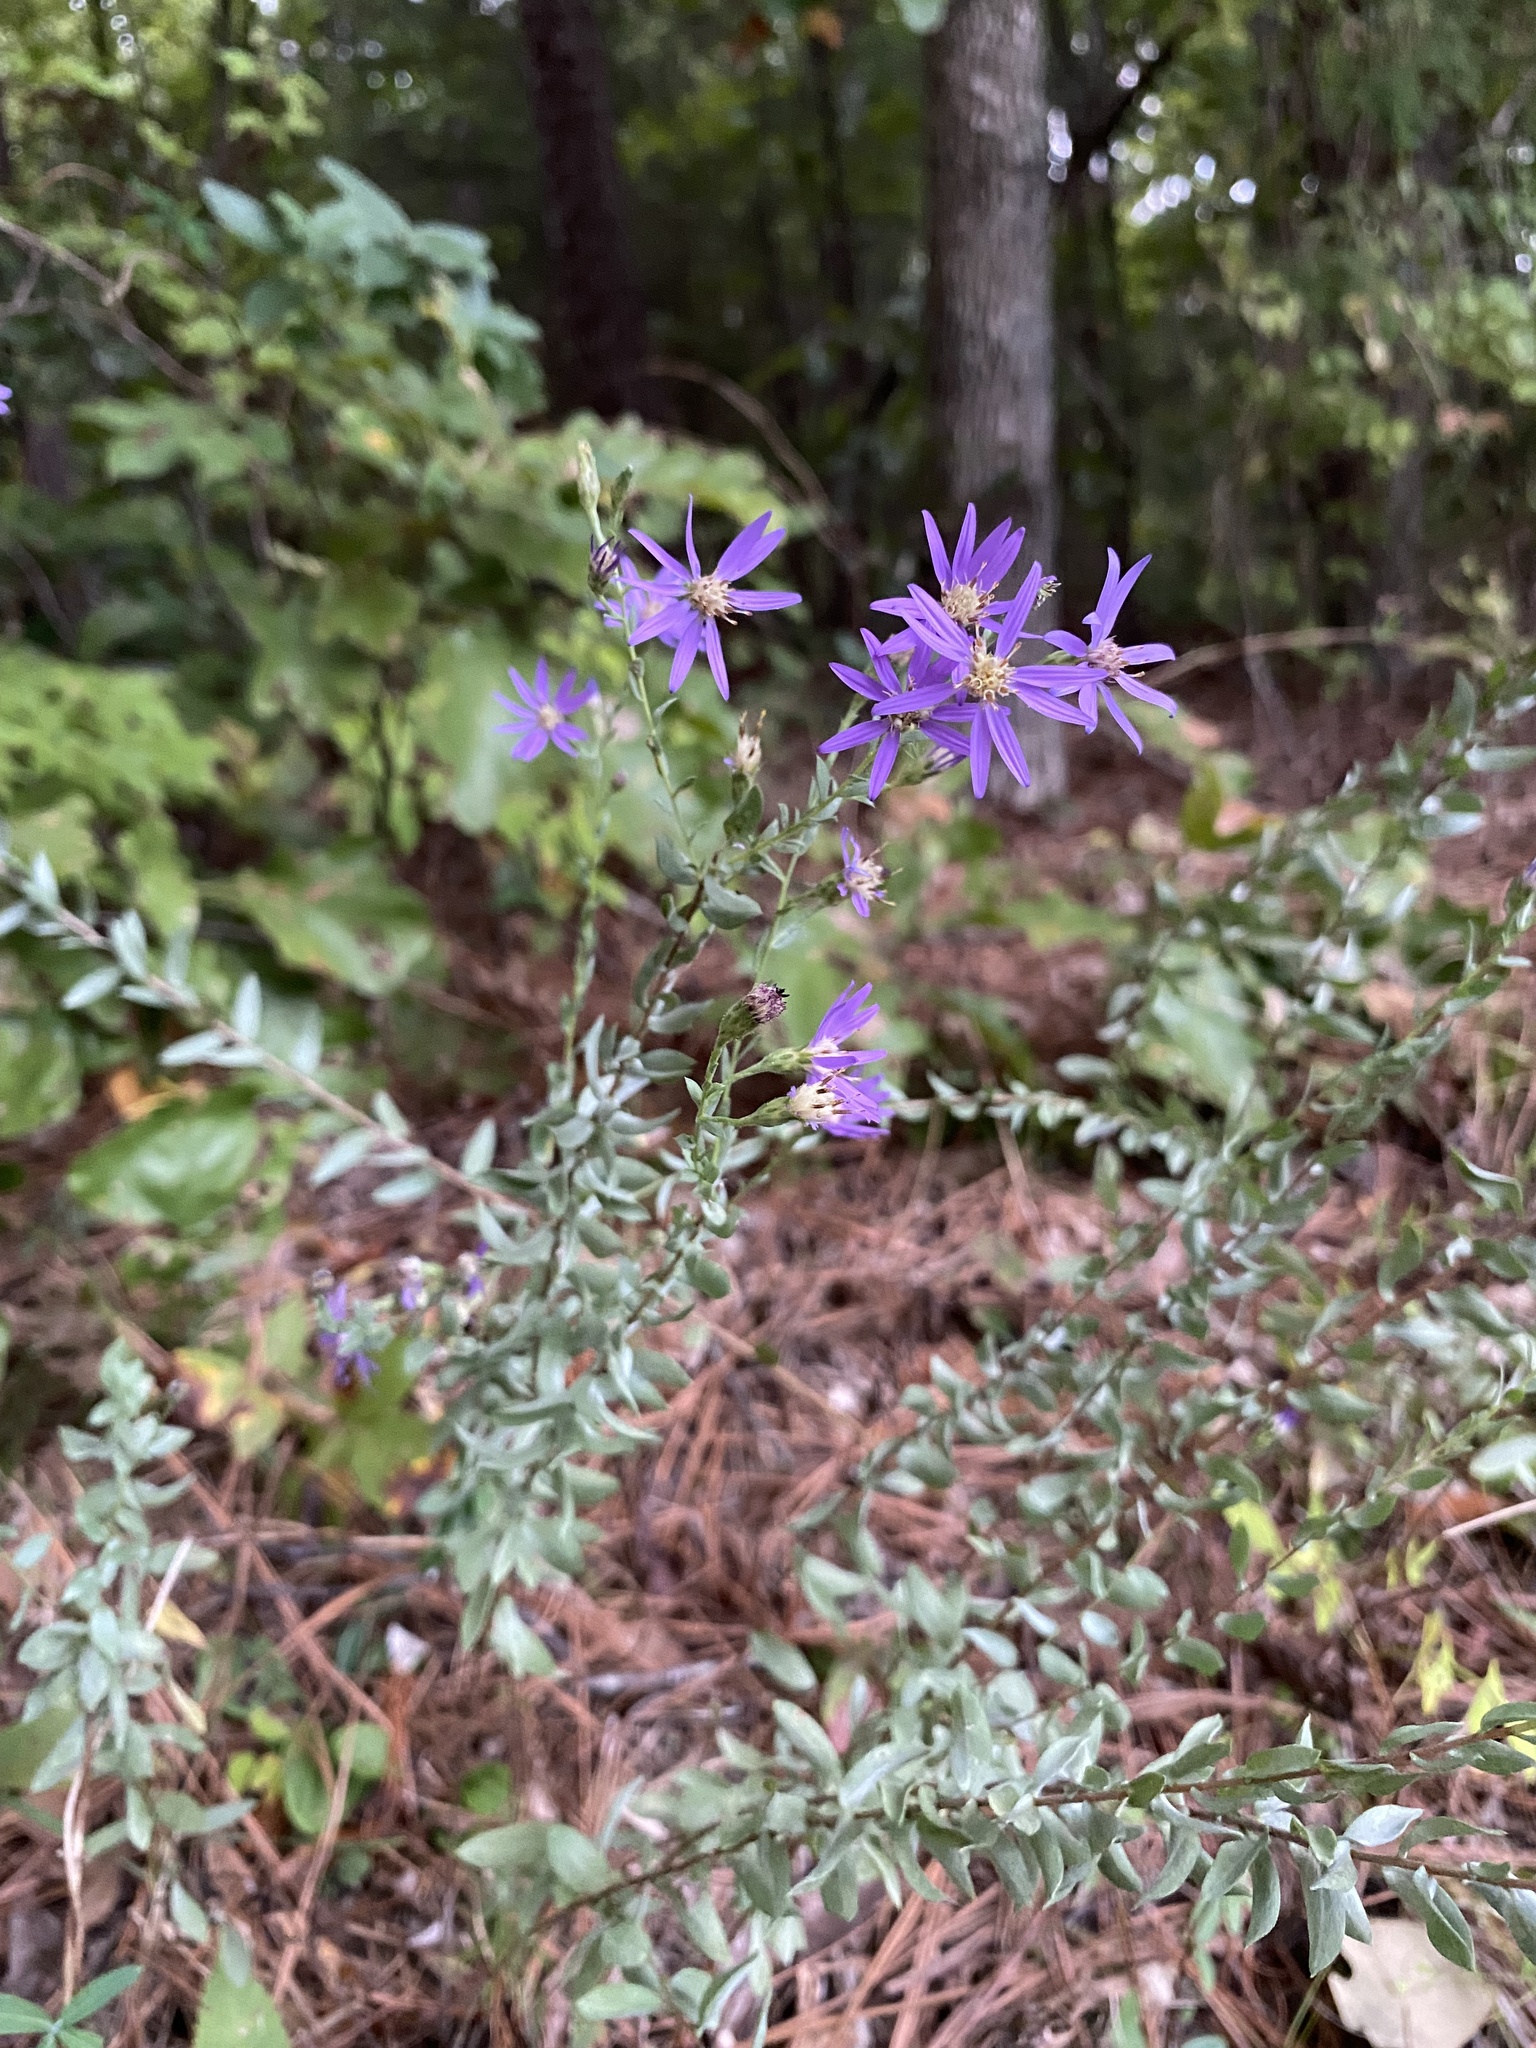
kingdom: Plantae
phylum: Tracheophyta
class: Magnoliopsida
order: Asterales
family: Asteraceae
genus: Symphyotrichum
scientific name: Symphyotrichum concolor
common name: Eastern silver aster
